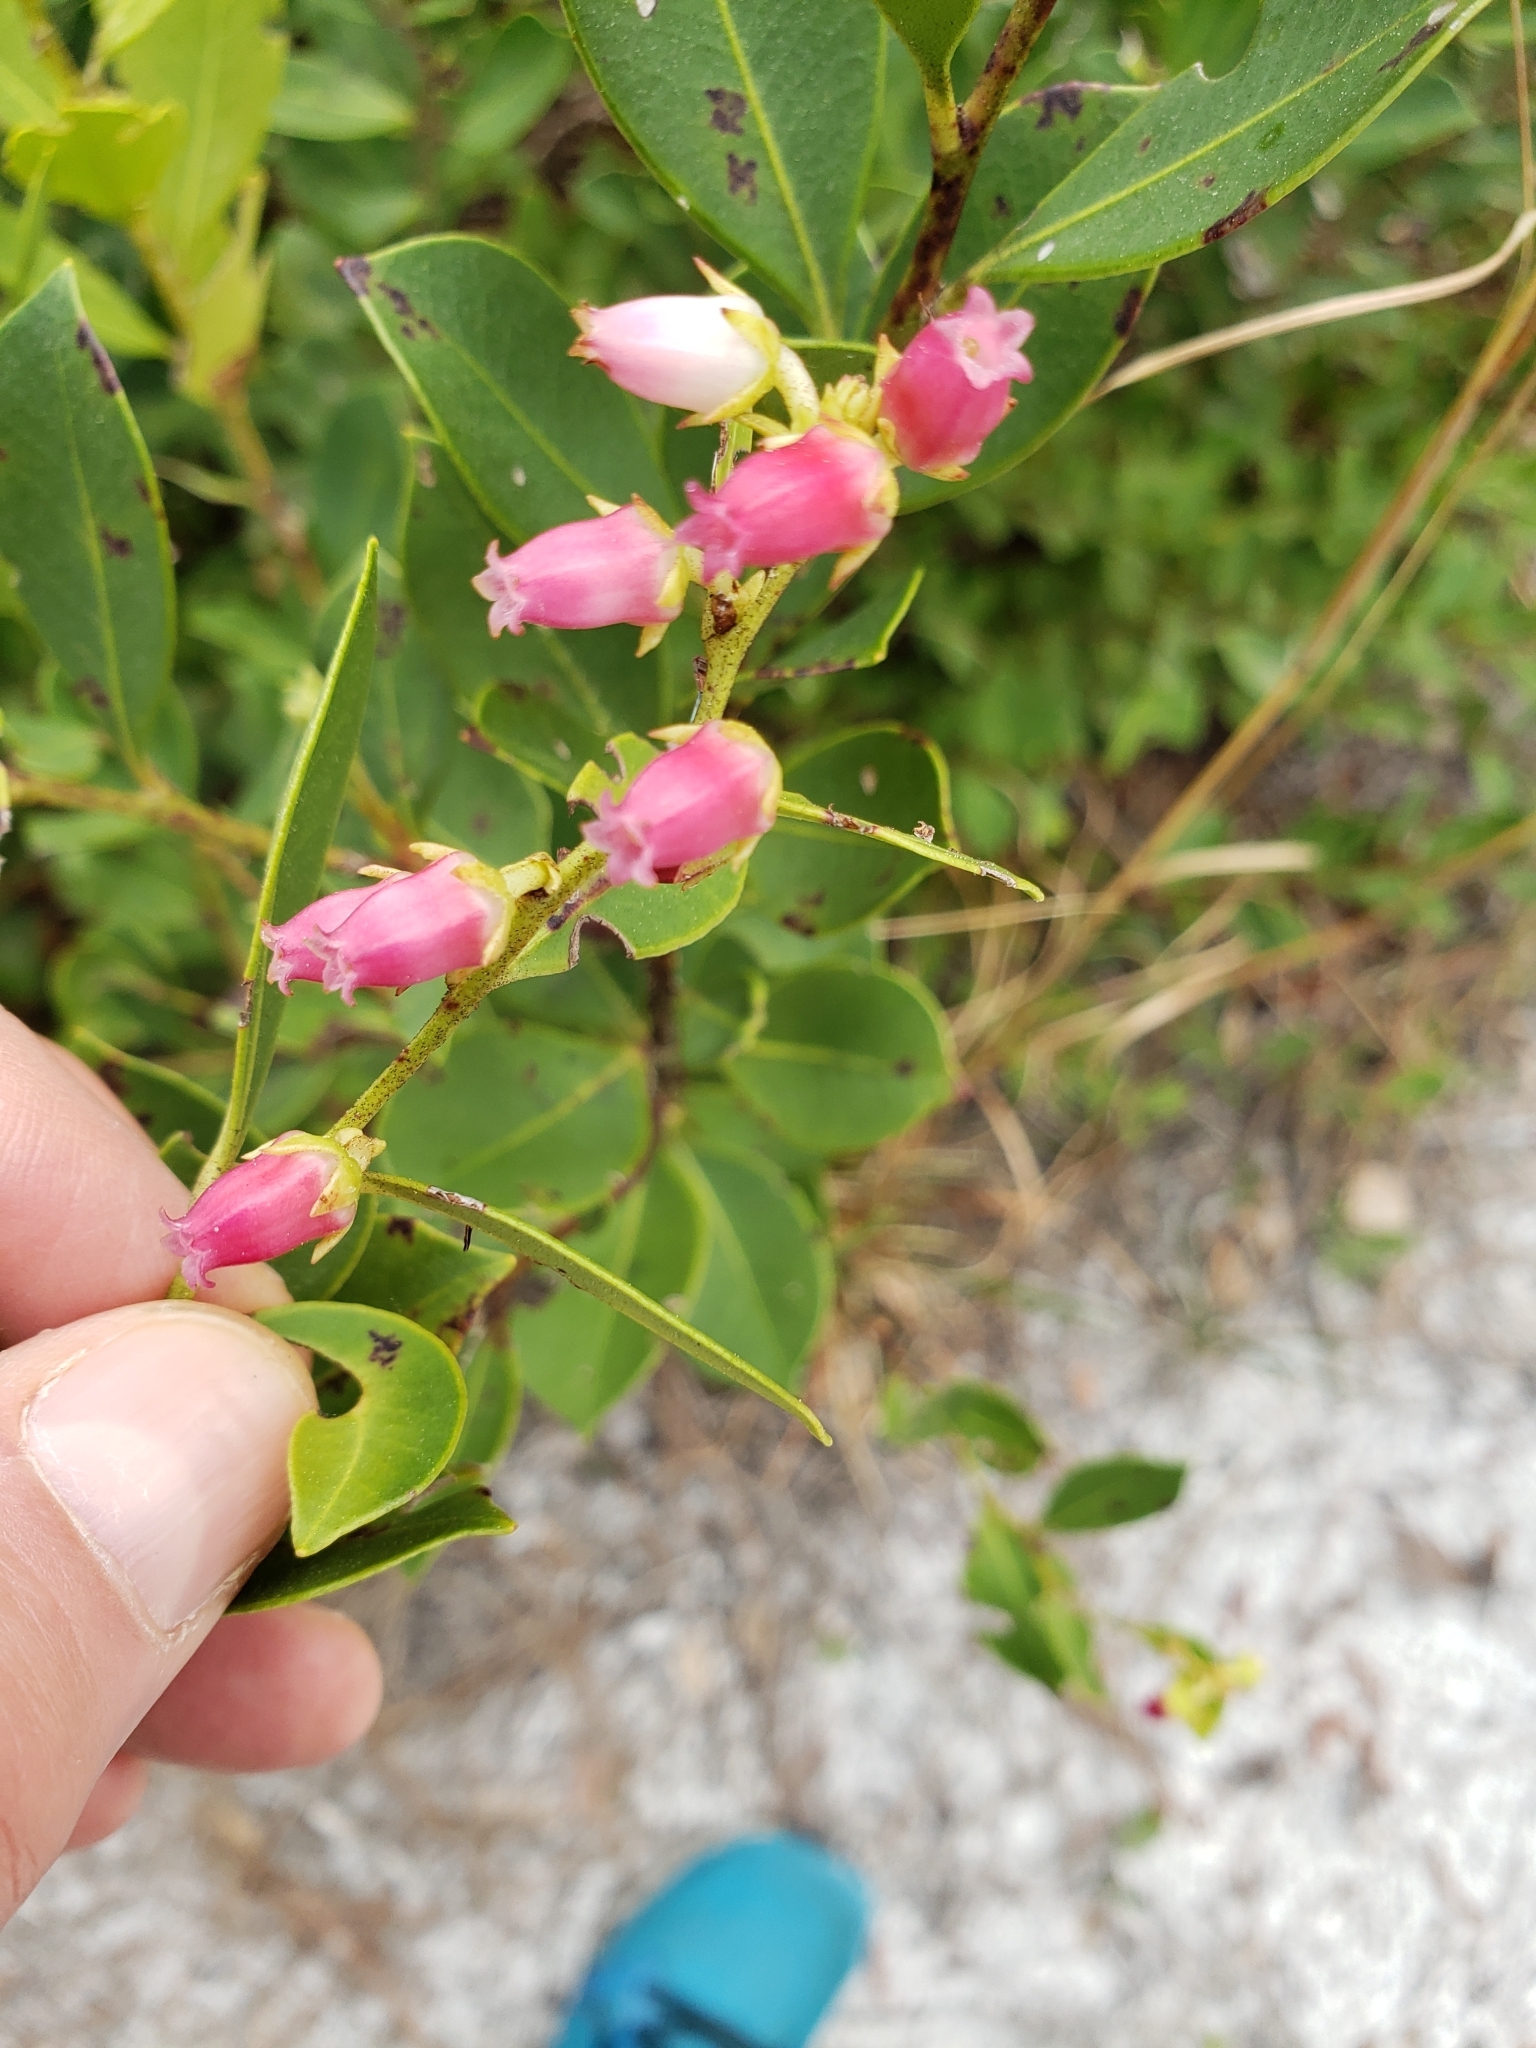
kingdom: Plantae
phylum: Tracheophyta
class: Magnoliopsida
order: Ericales
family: Ericaceae
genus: Lyonia
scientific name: Lyonia lucida
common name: Fetterbush
